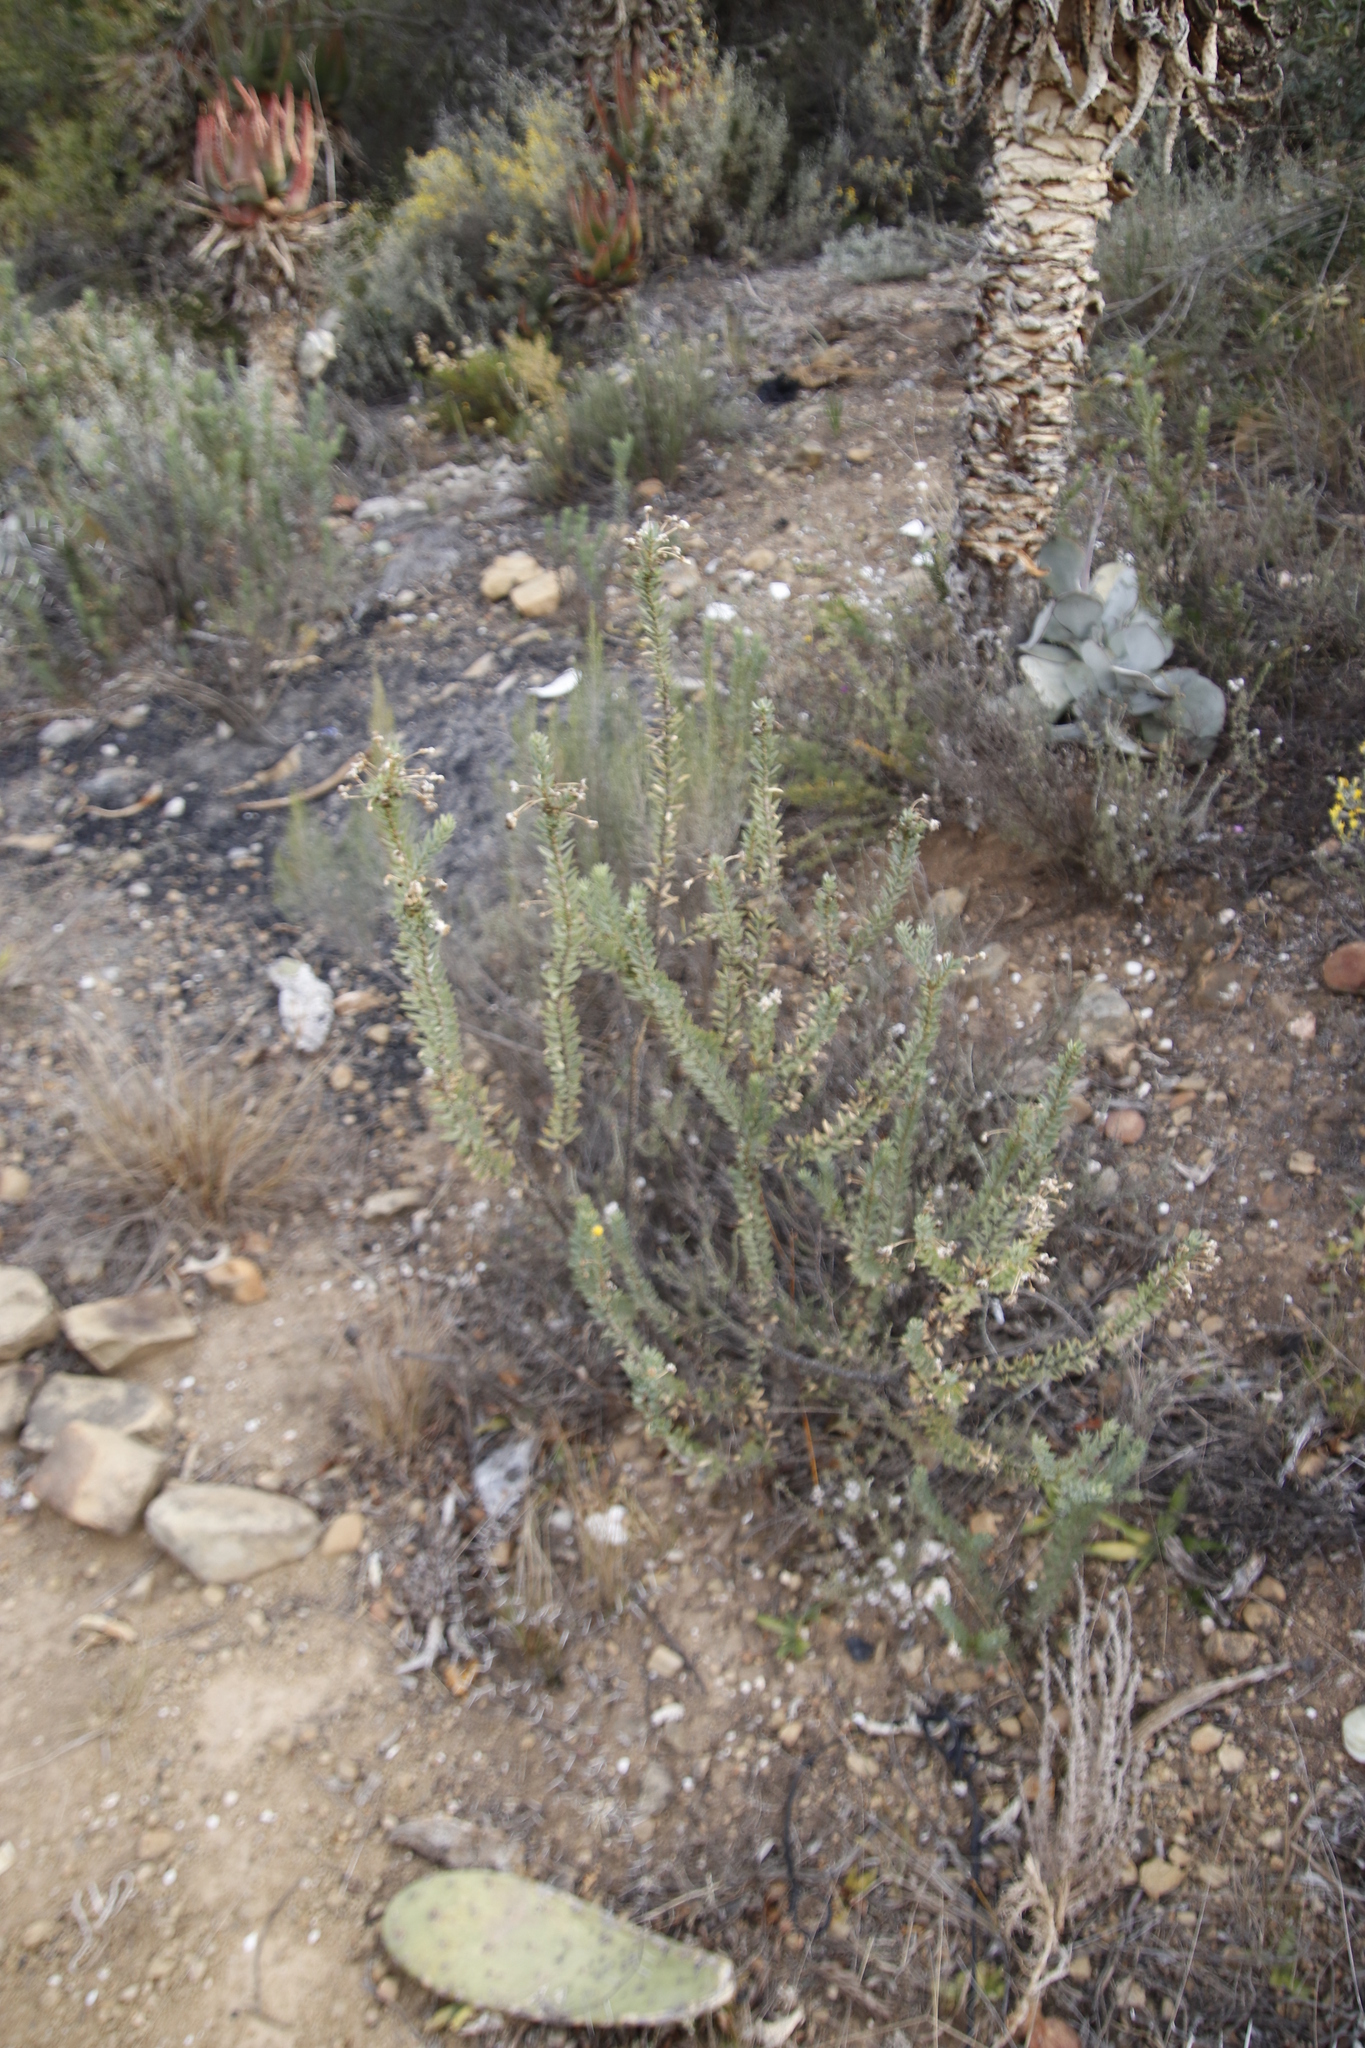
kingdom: Plantae
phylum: Tracheophyta
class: Magnoliopsida
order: Asterales
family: Asteraceae
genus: Euryops
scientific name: Euryops lateriflorus
